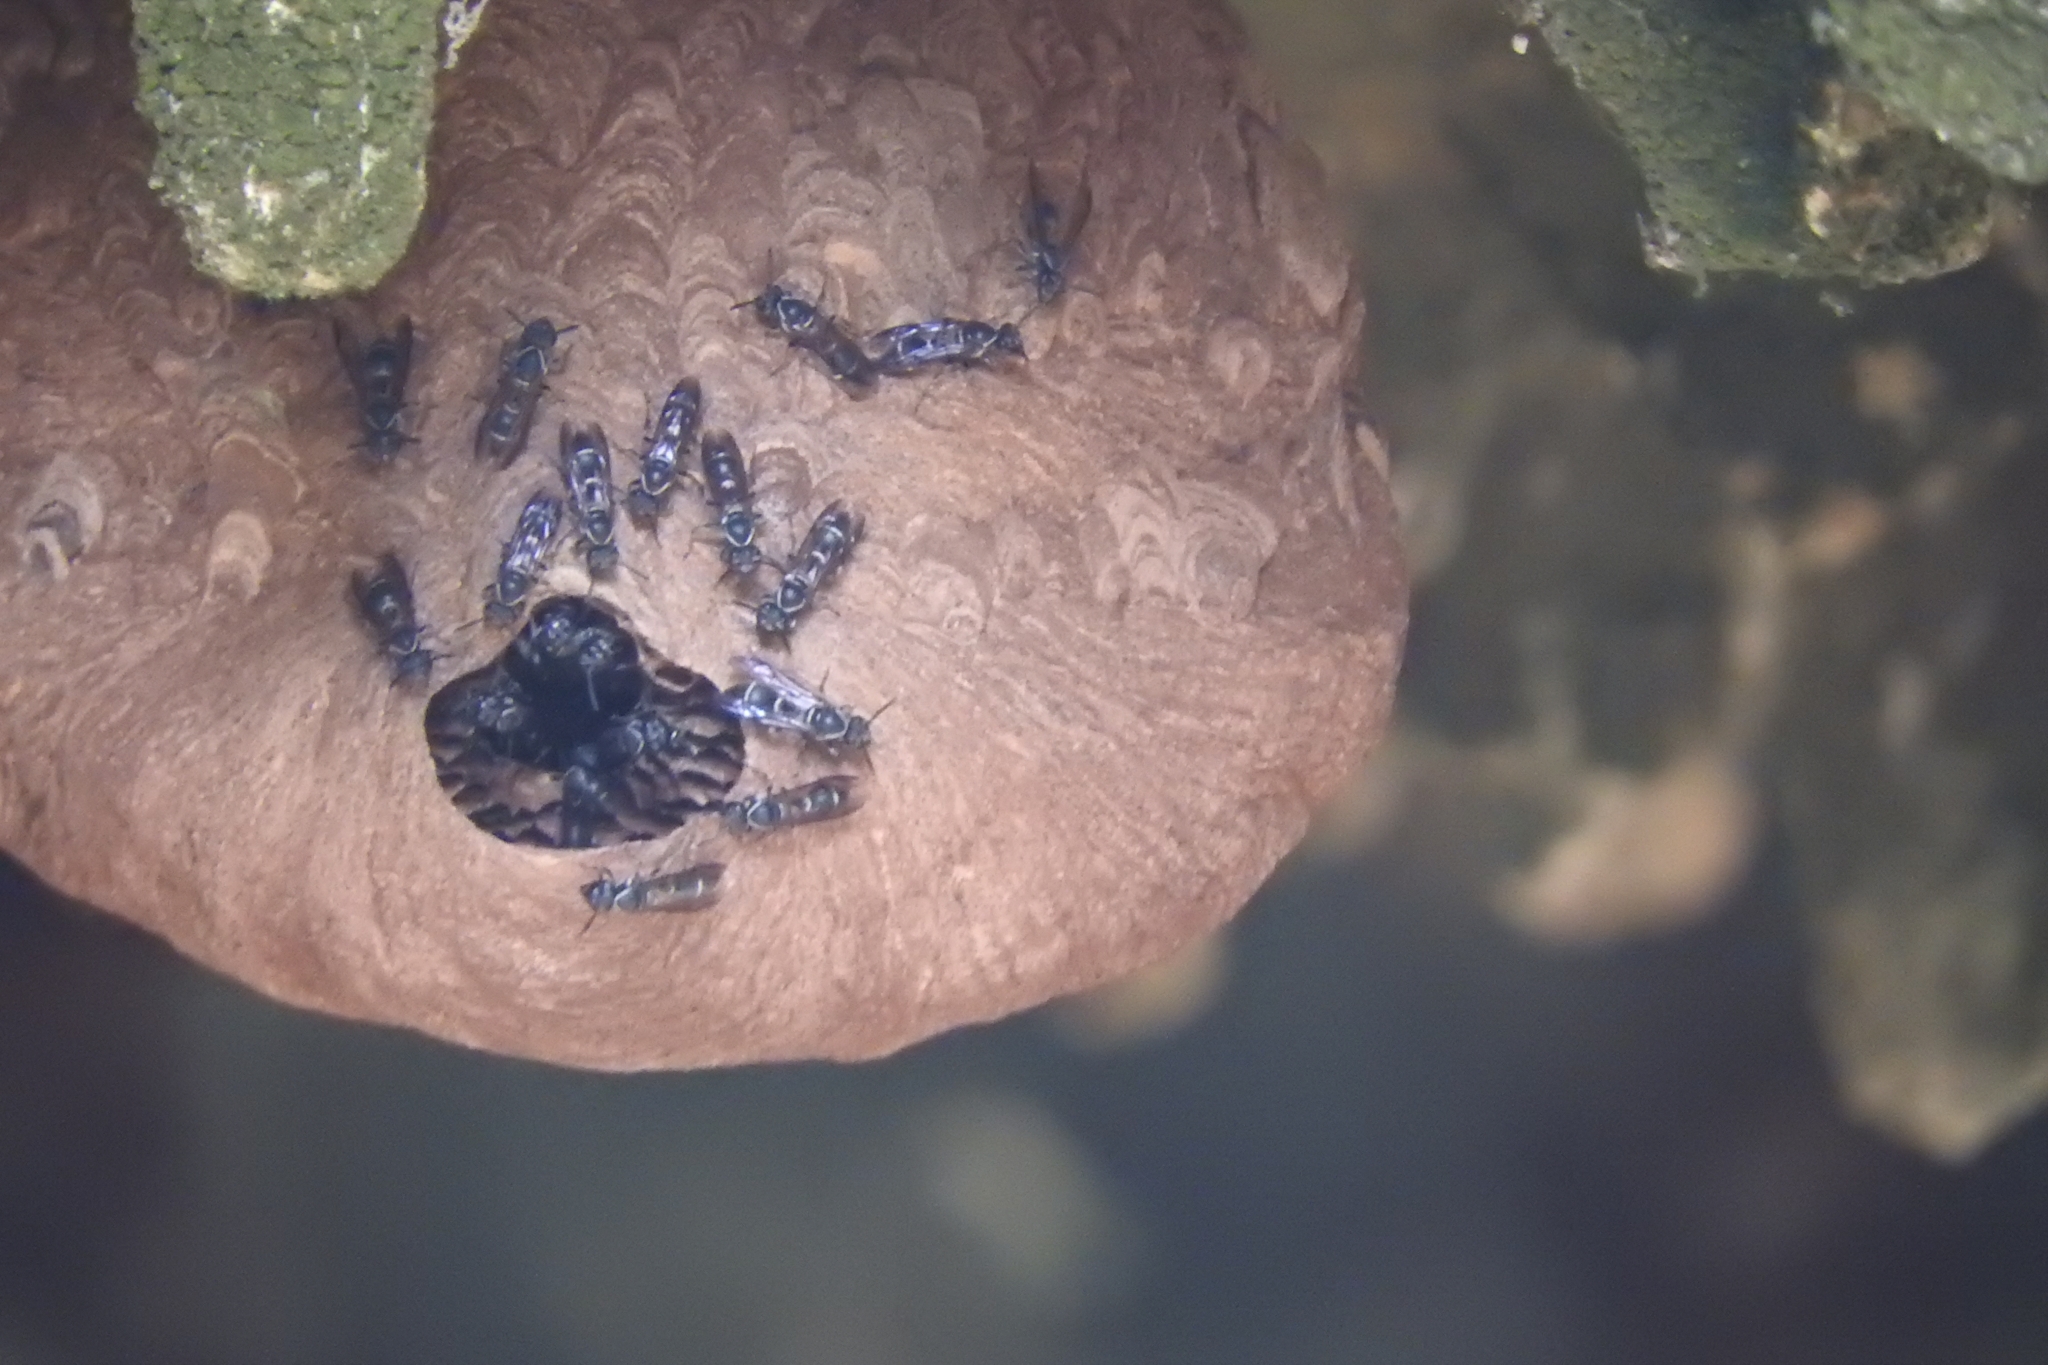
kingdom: Animalia
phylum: Arthropoda
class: Insecta
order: Hymenoptera
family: Eumenidae
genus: Polybia
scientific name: Polybia plebeja
